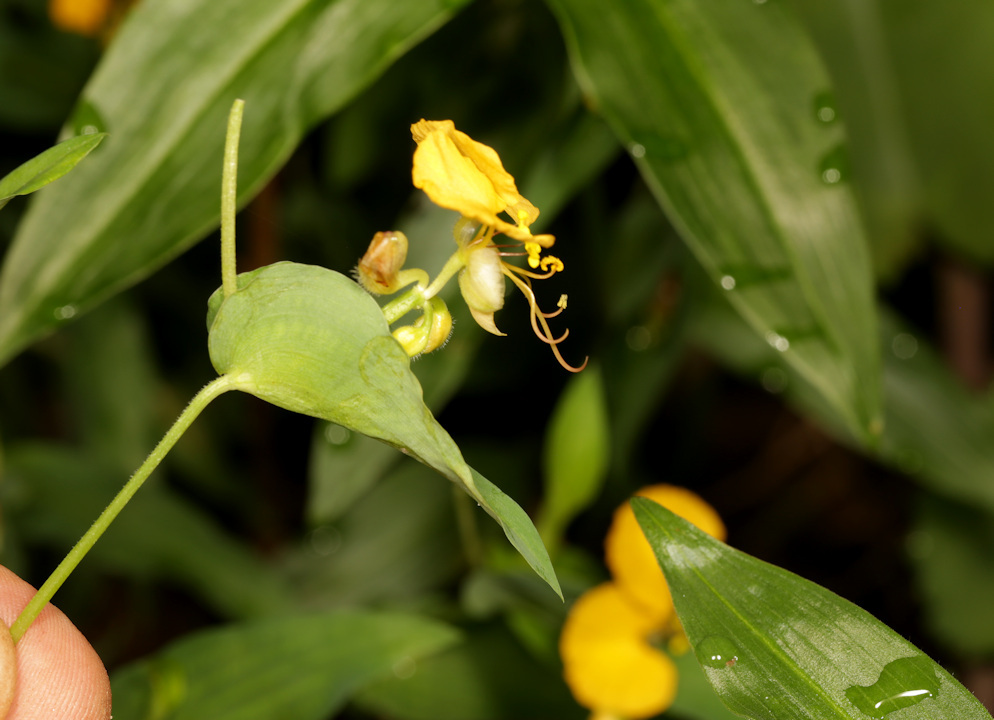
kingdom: Plantae
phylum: Tracheophyta
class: Liliopsida
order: Commelinales
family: Commelinaceae
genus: Commelina
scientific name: Commelina africana
